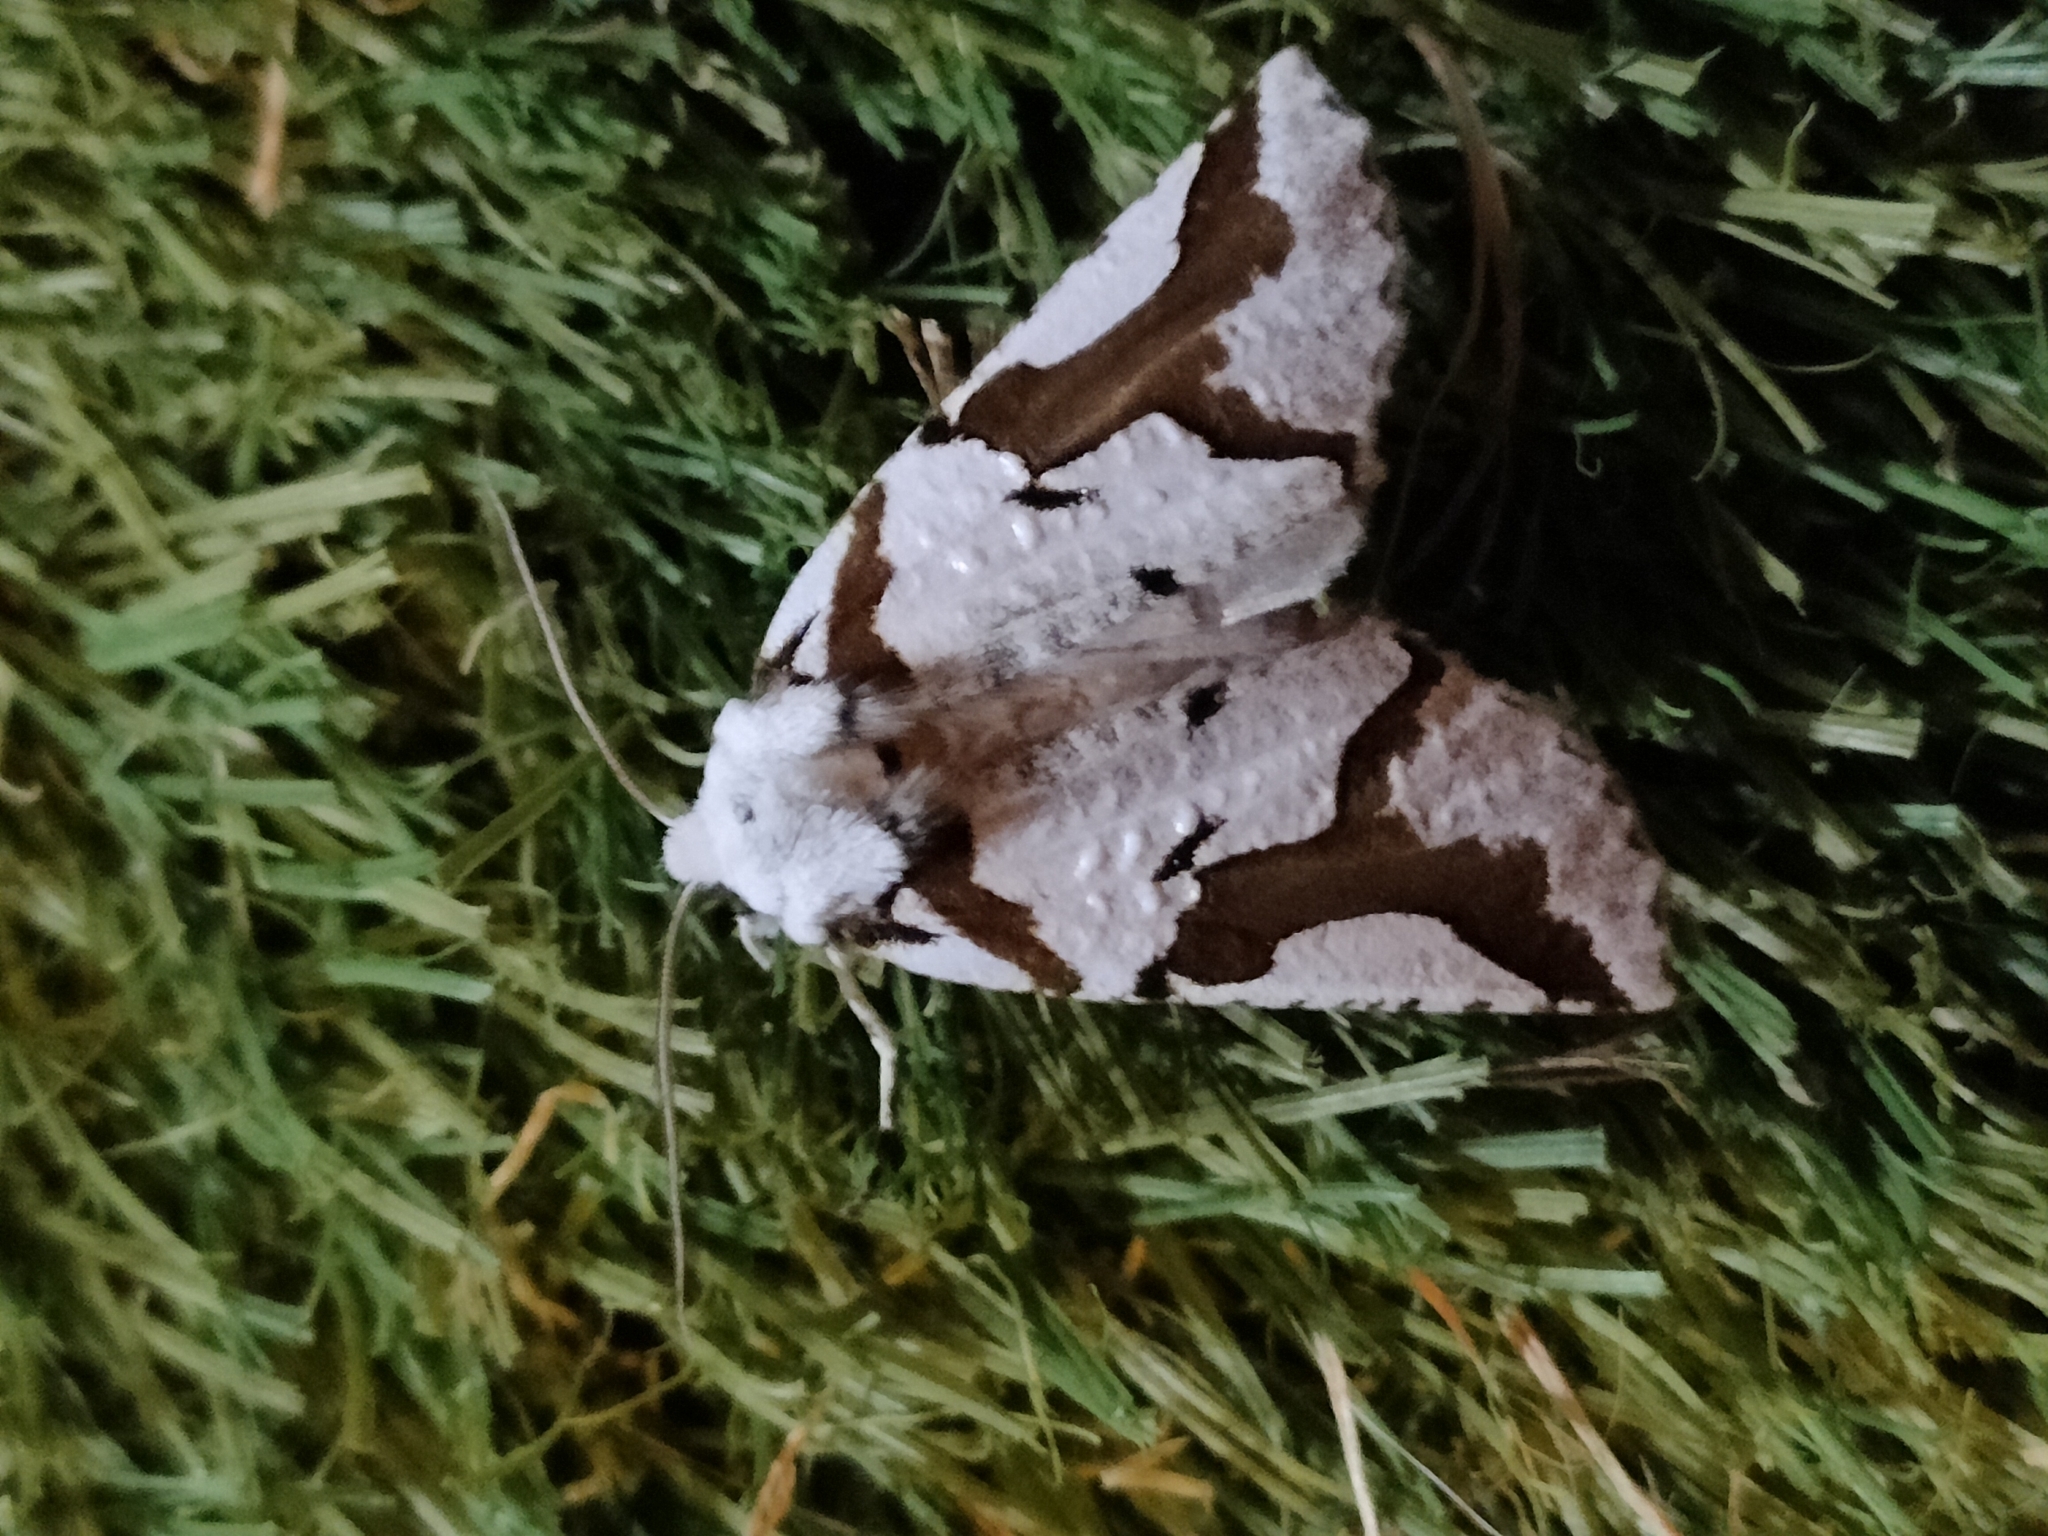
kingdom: Animalia
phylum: Arthropoda
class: Insecta
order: Lepidoptera
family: Geometridae
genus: Declana
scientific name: Declana
